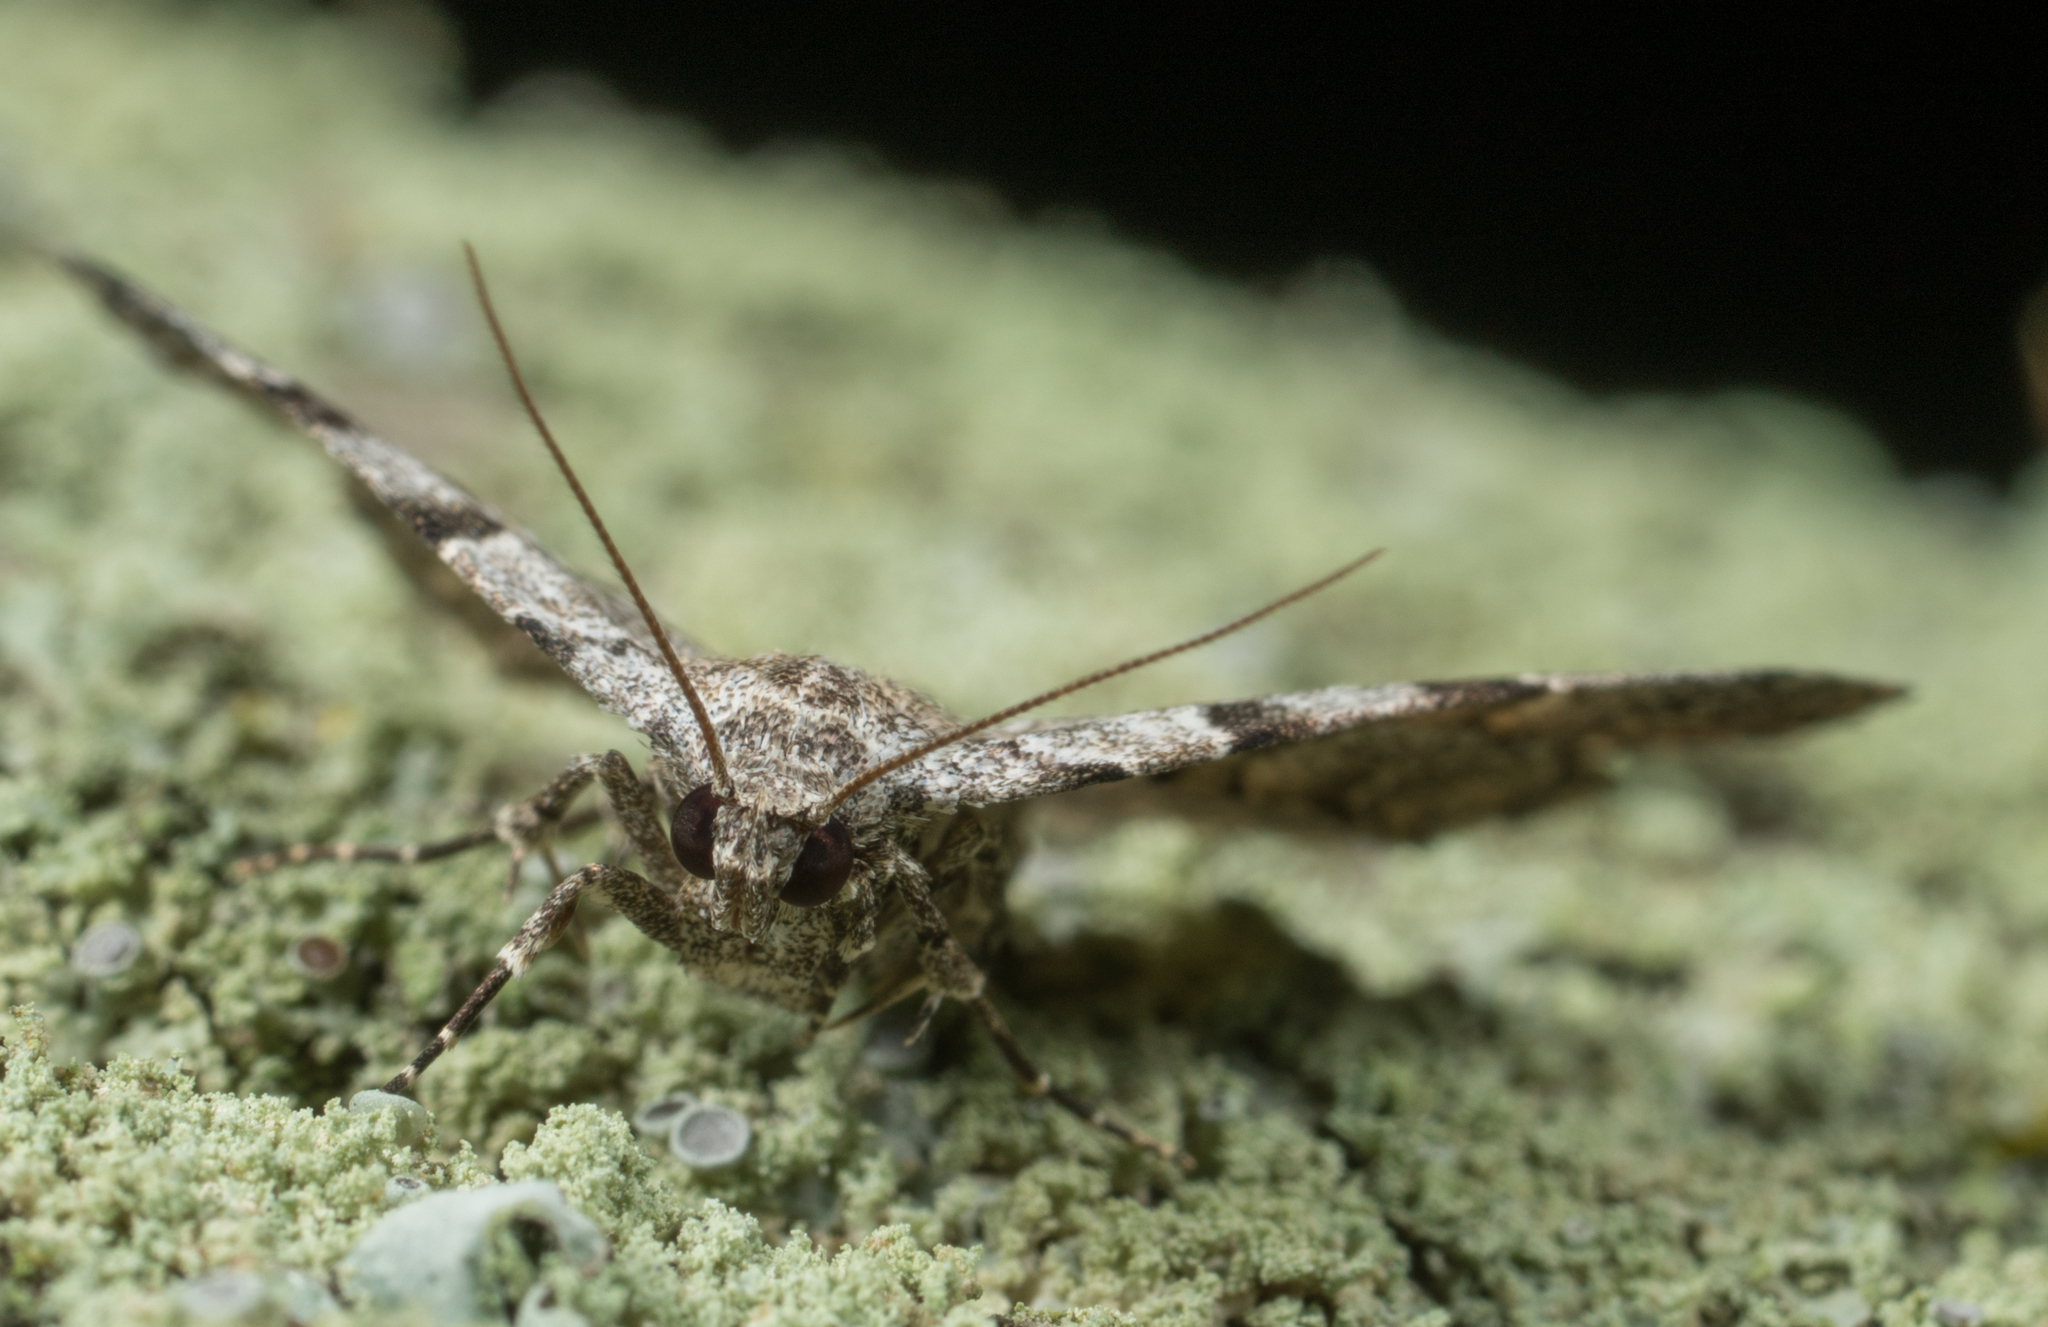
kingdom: Animalia
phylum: Arthropoda
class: Insecta
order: Lepidoptera
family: Erebidae
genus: Idia
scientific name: Idia americalis
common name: American idia moth
